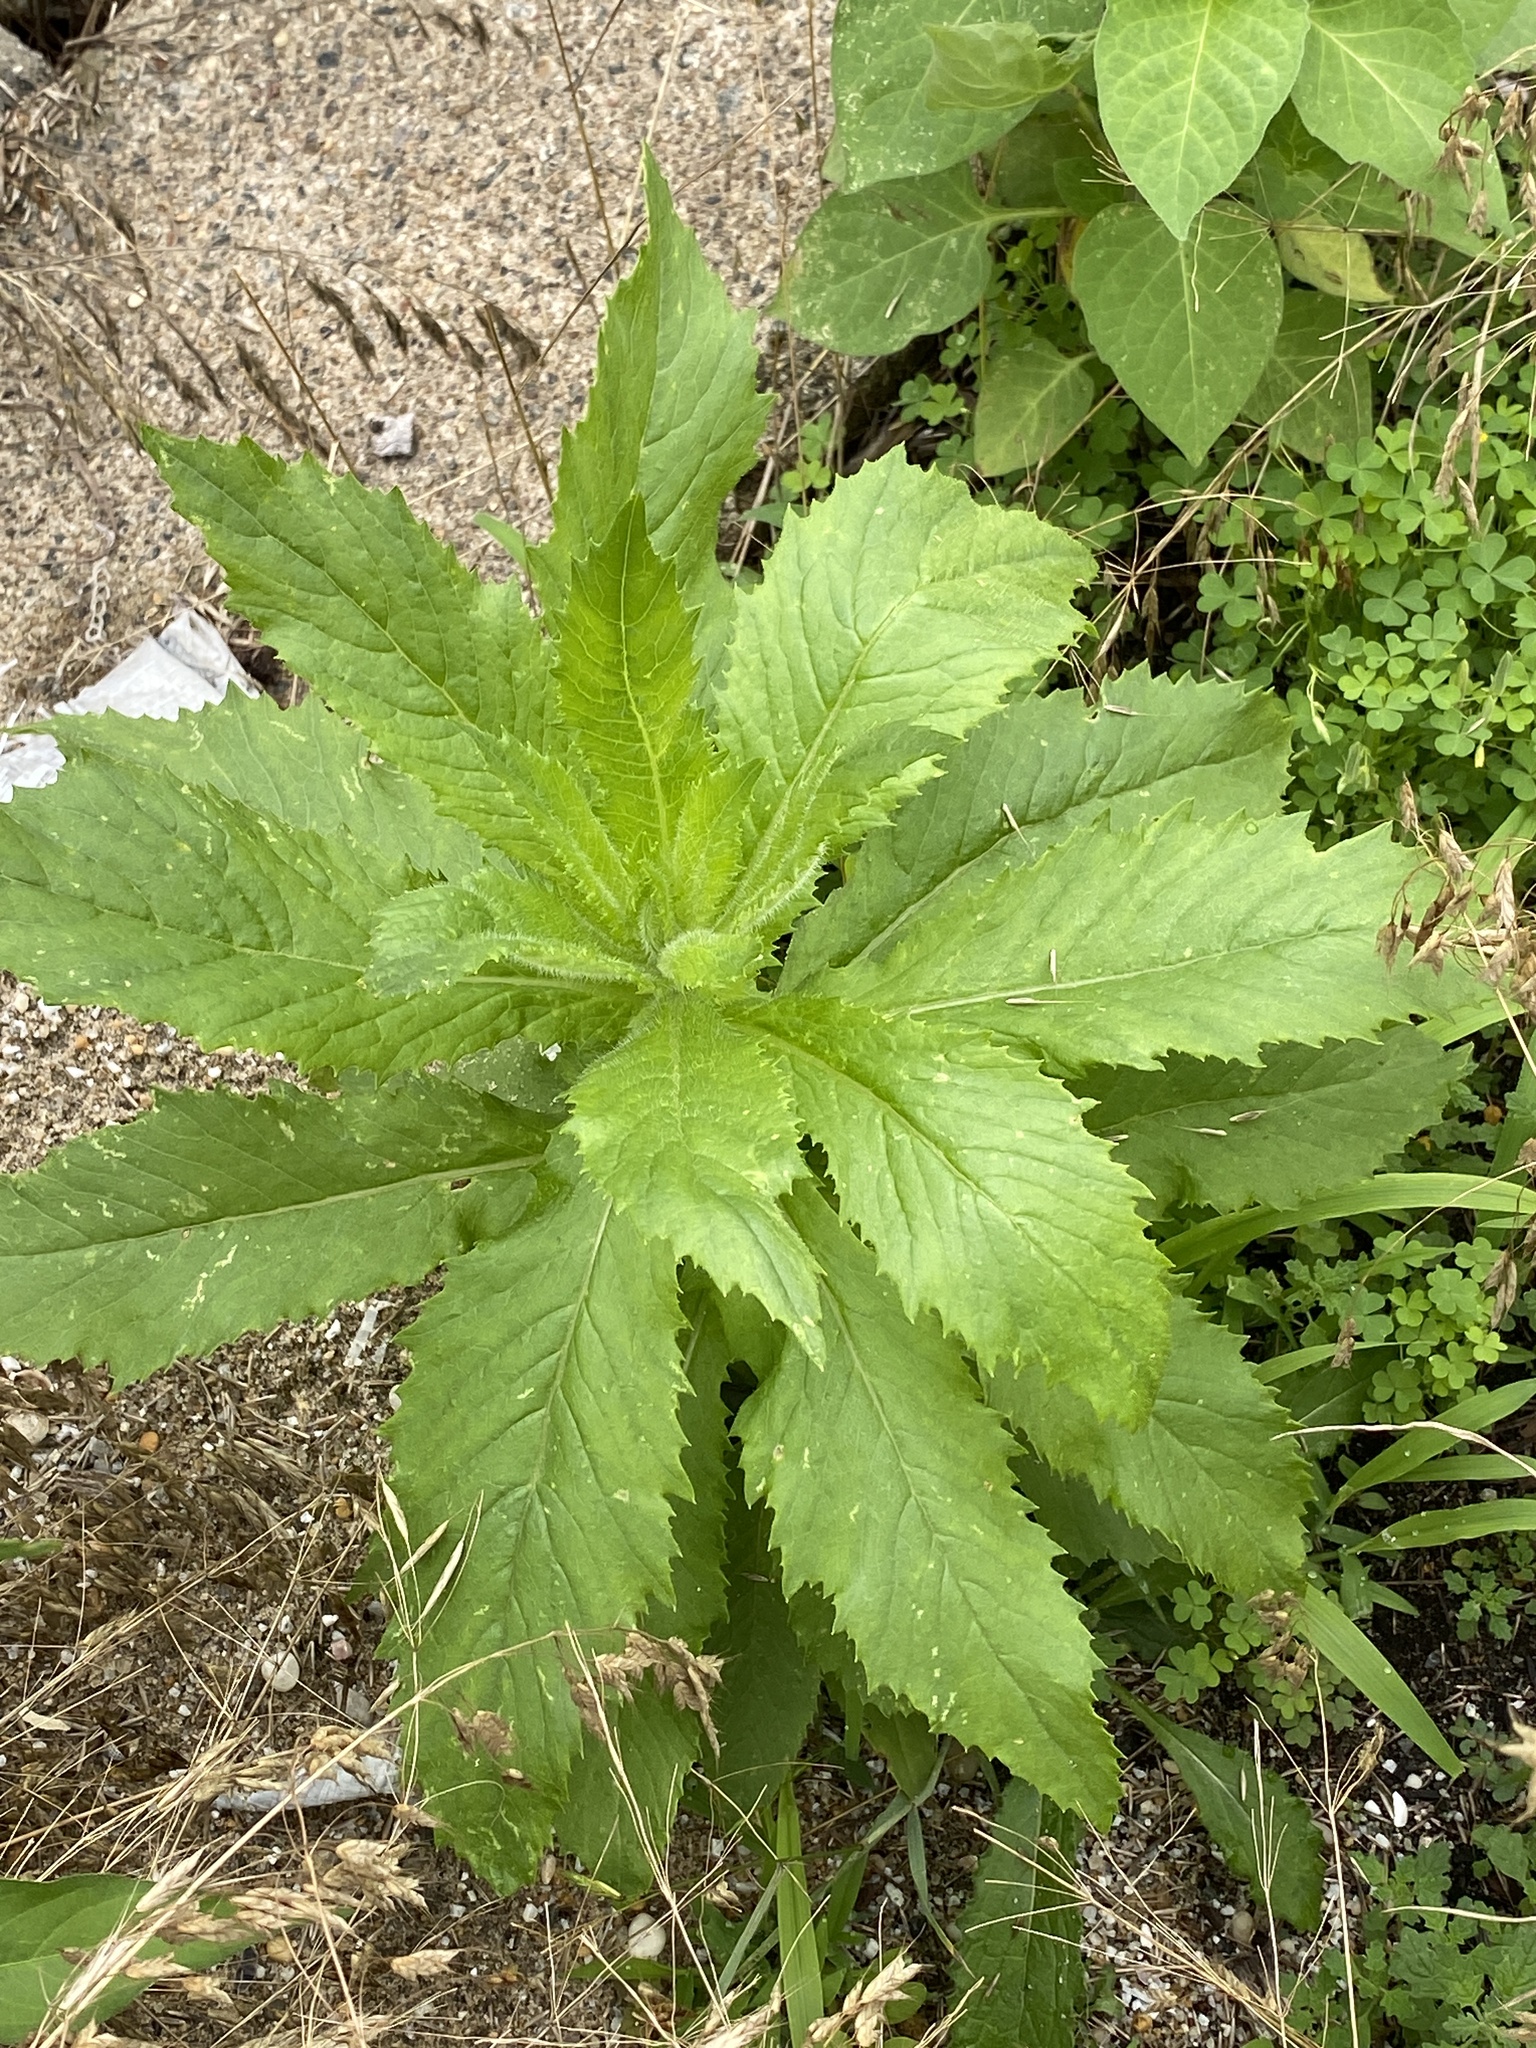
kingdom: Plantae
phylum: Tracheophyta
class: Magnoliopsida
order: Asterales
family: Asteraceae
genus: Erechtites
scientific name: Erechtites hieraciifolius
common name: American burnweed
